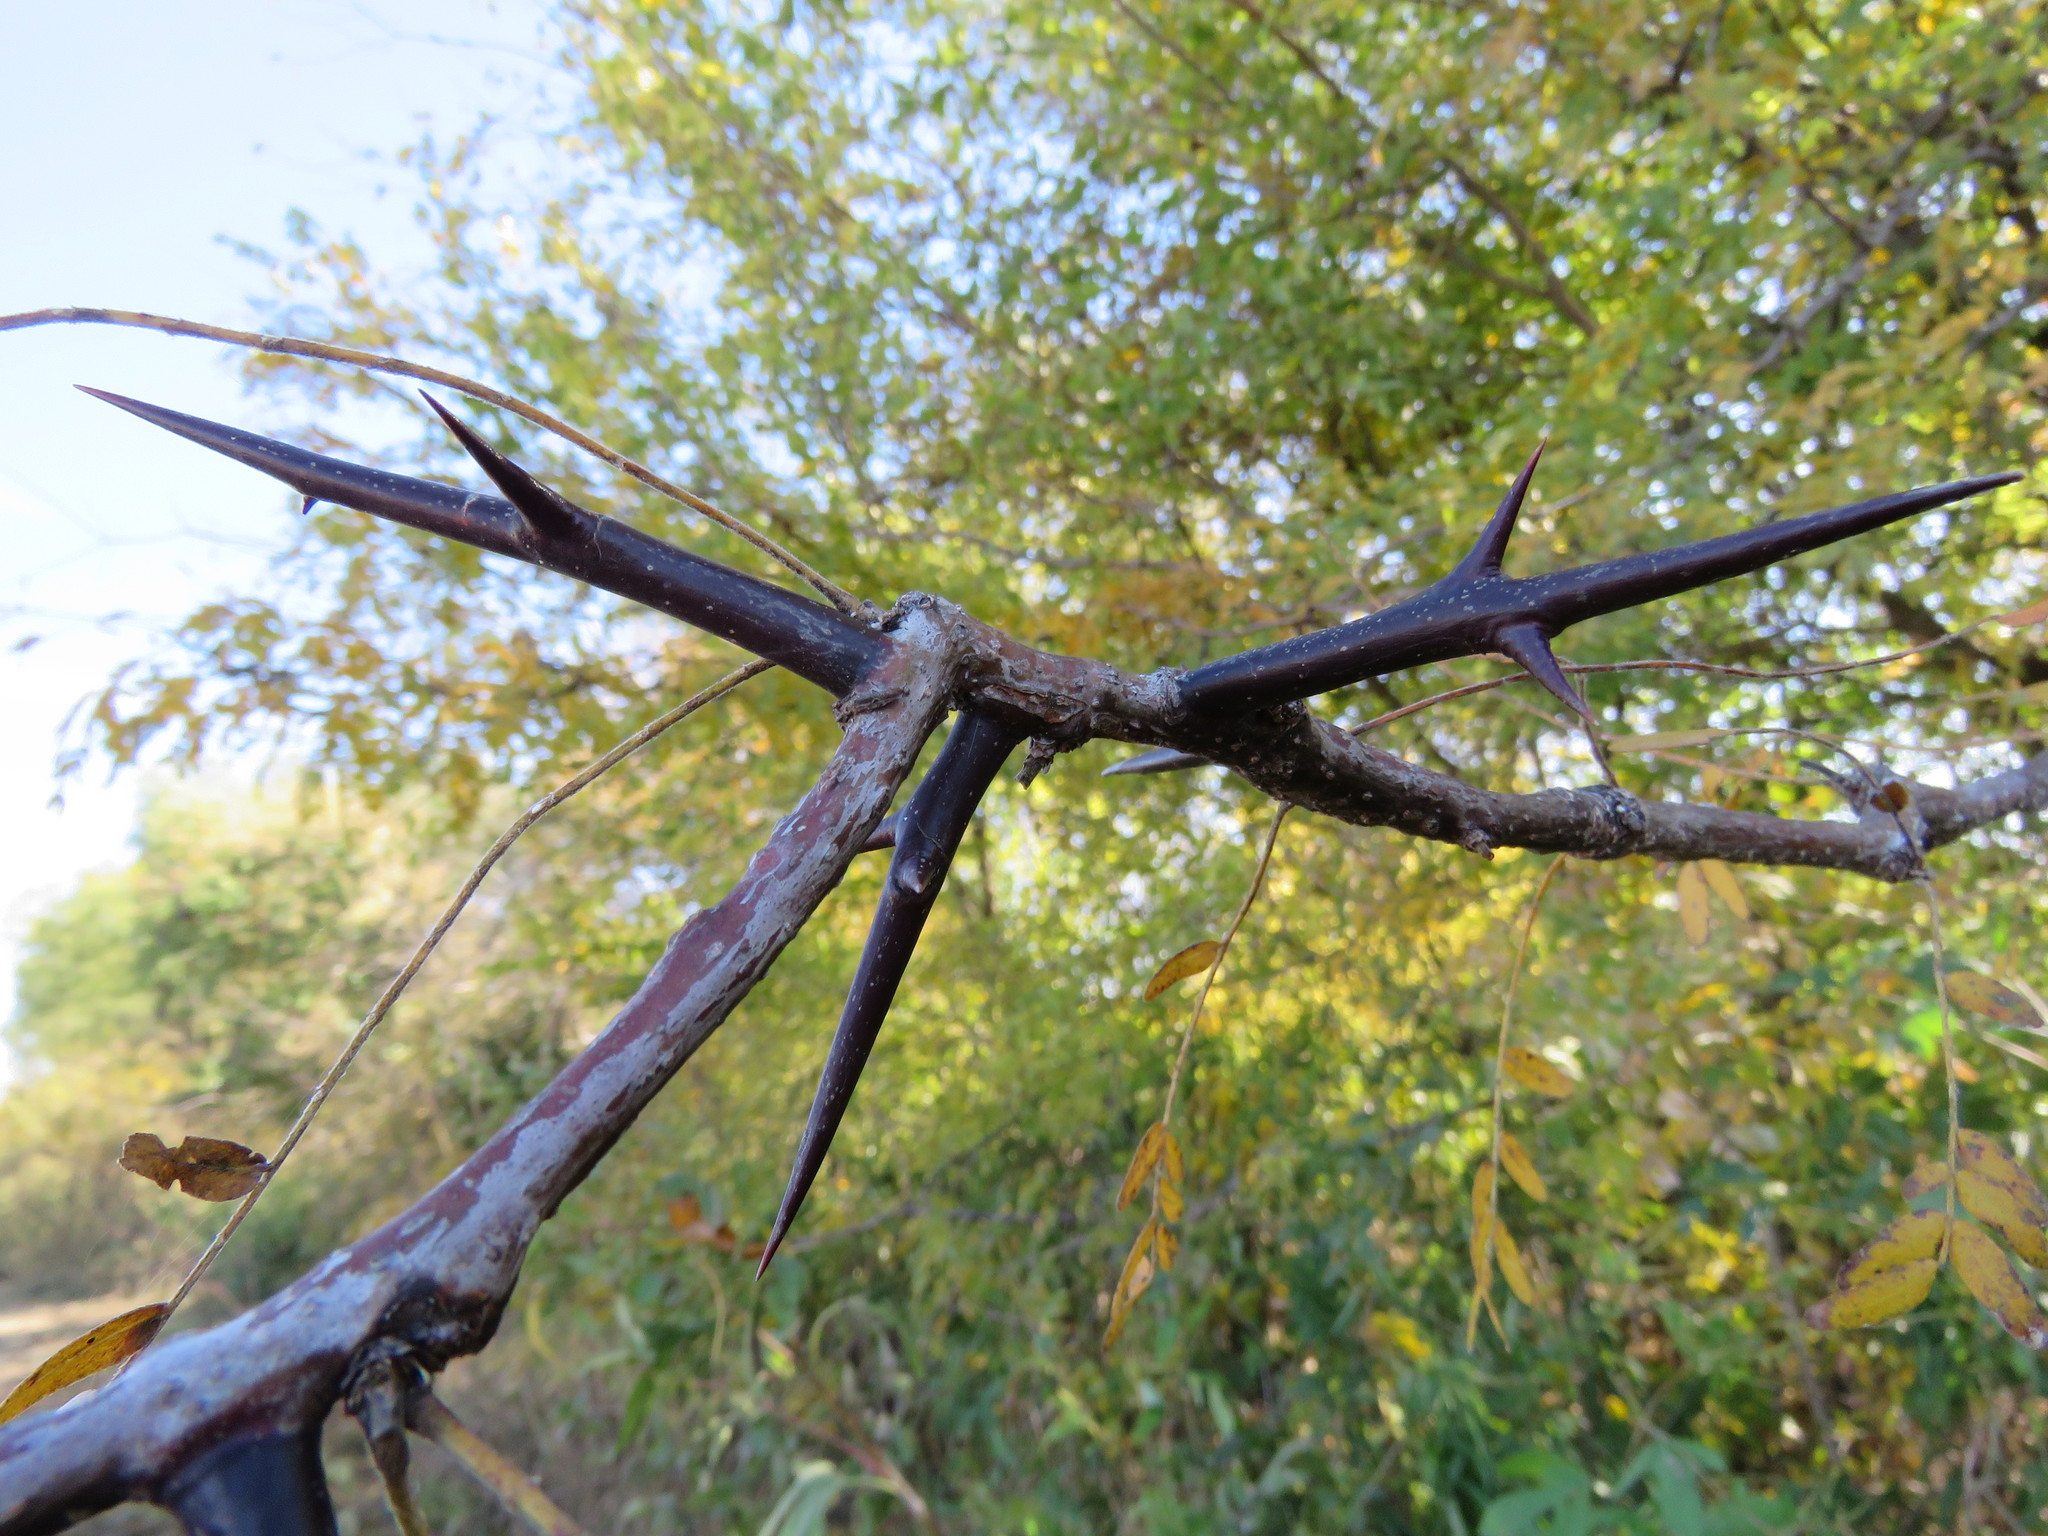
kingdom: Plantae
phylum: Tracheophyta
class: Magnoliopsida
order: Fabales
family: Fabaceae
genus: Gleditsia
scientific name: Gleditsia triacanthos
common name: Common honeylocust
